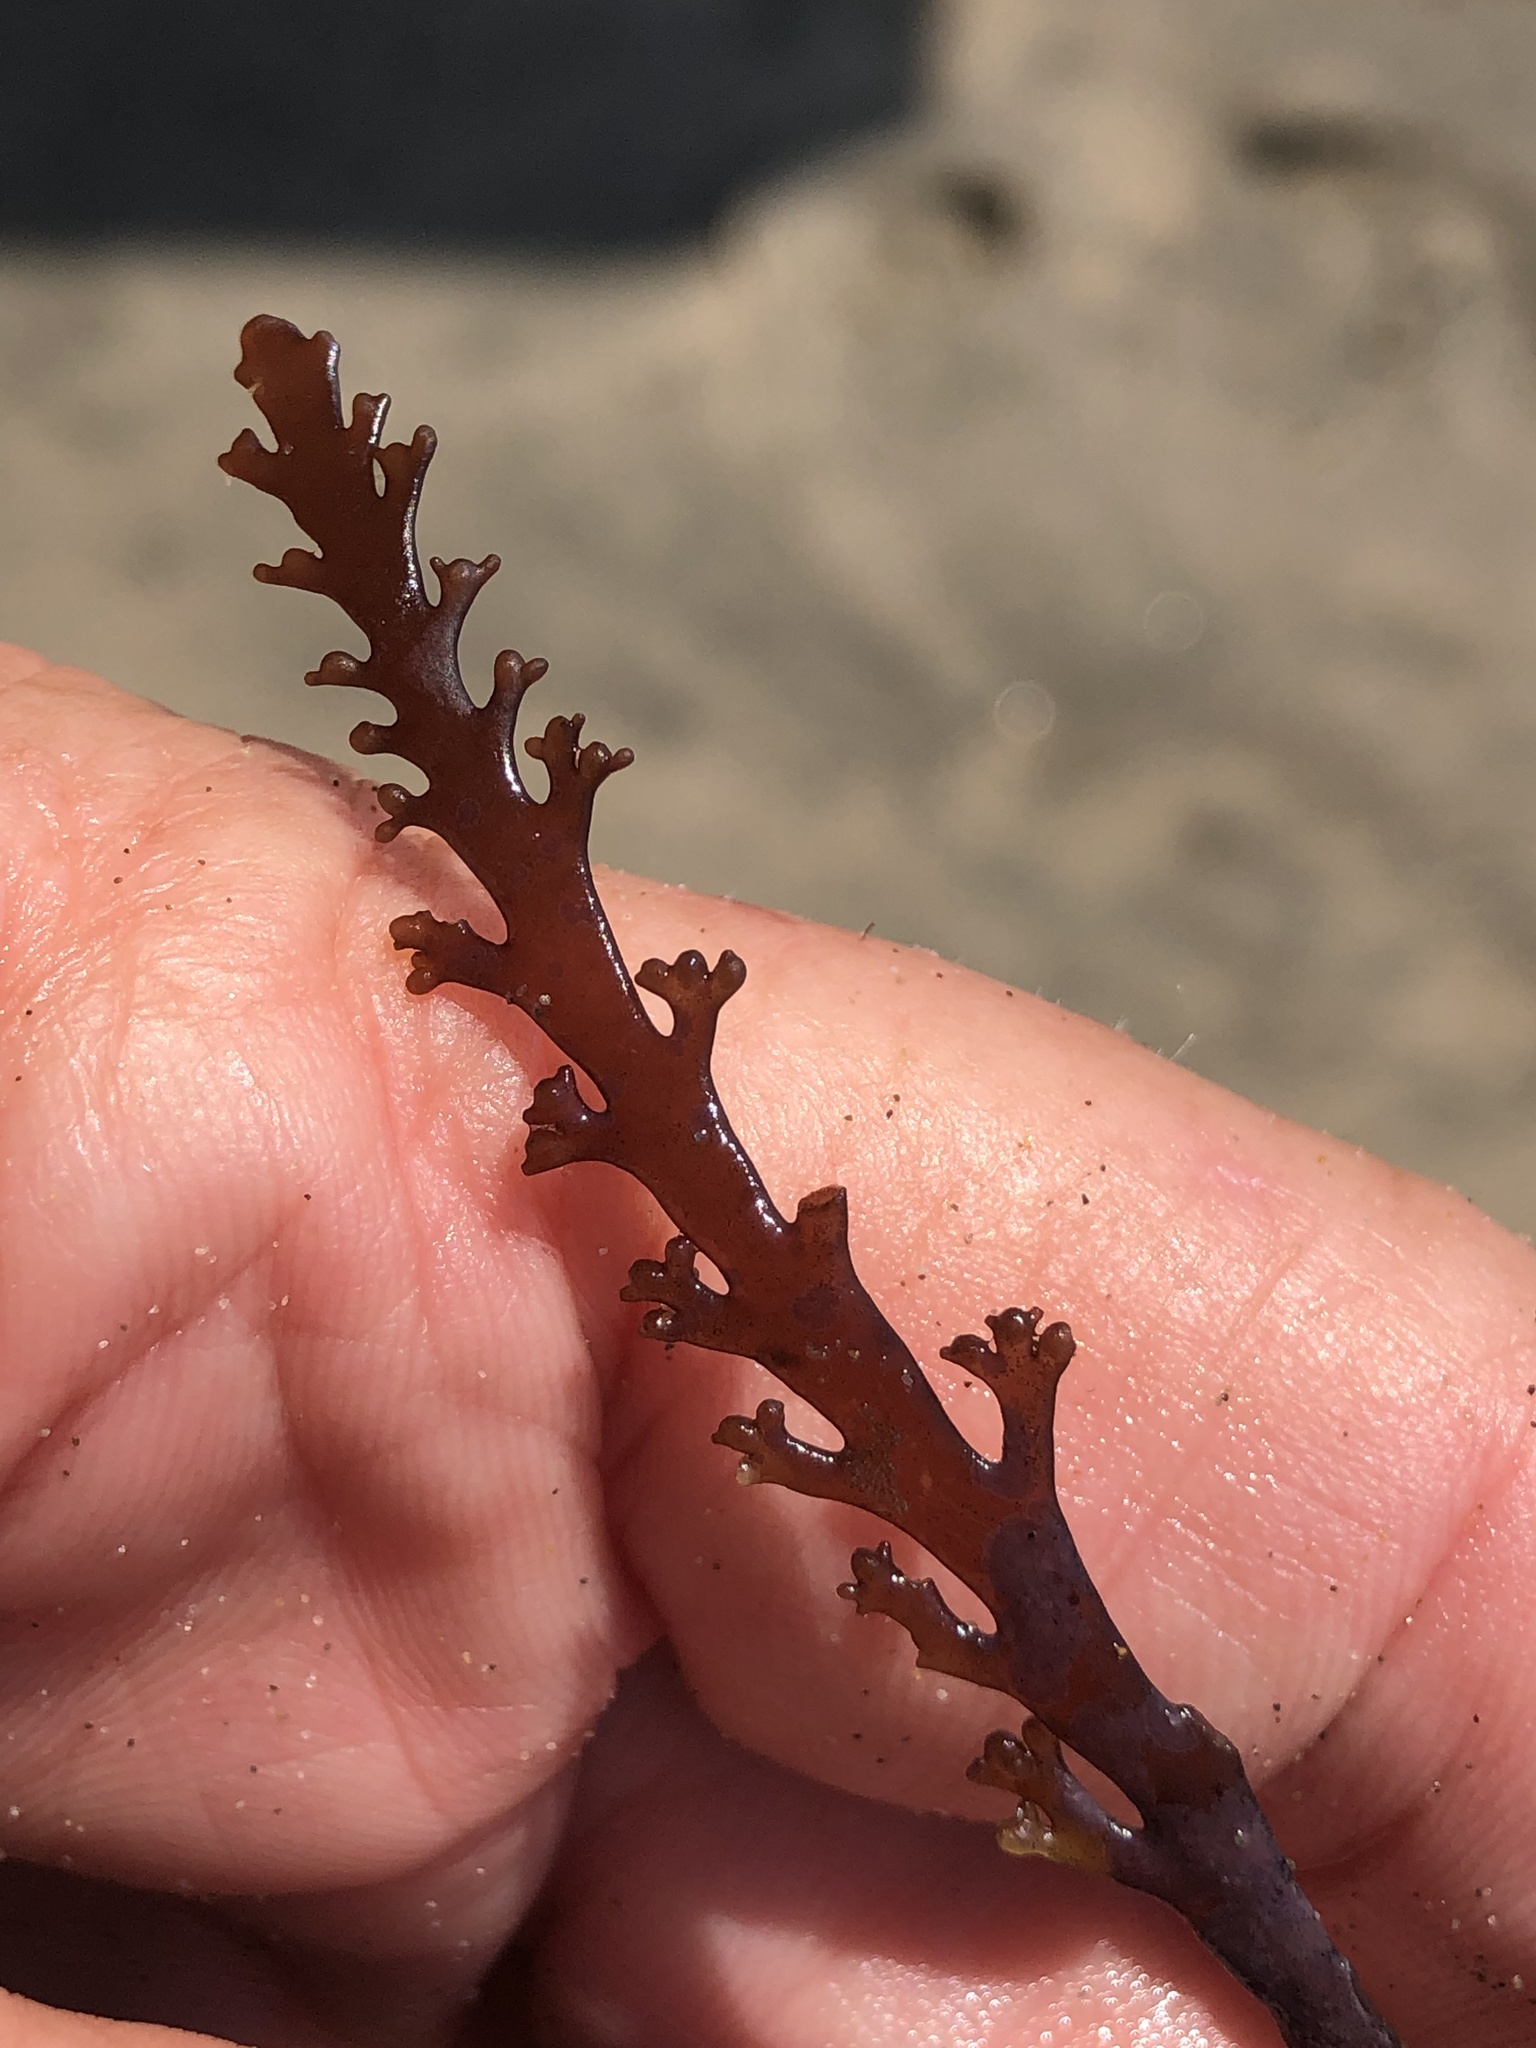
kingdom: Plantae
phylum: Rhodophyta
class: Florideophyceae
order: Ceramiales
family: Rhodomelaceae
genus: Osmundea
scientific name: Osmundea spectabilis
